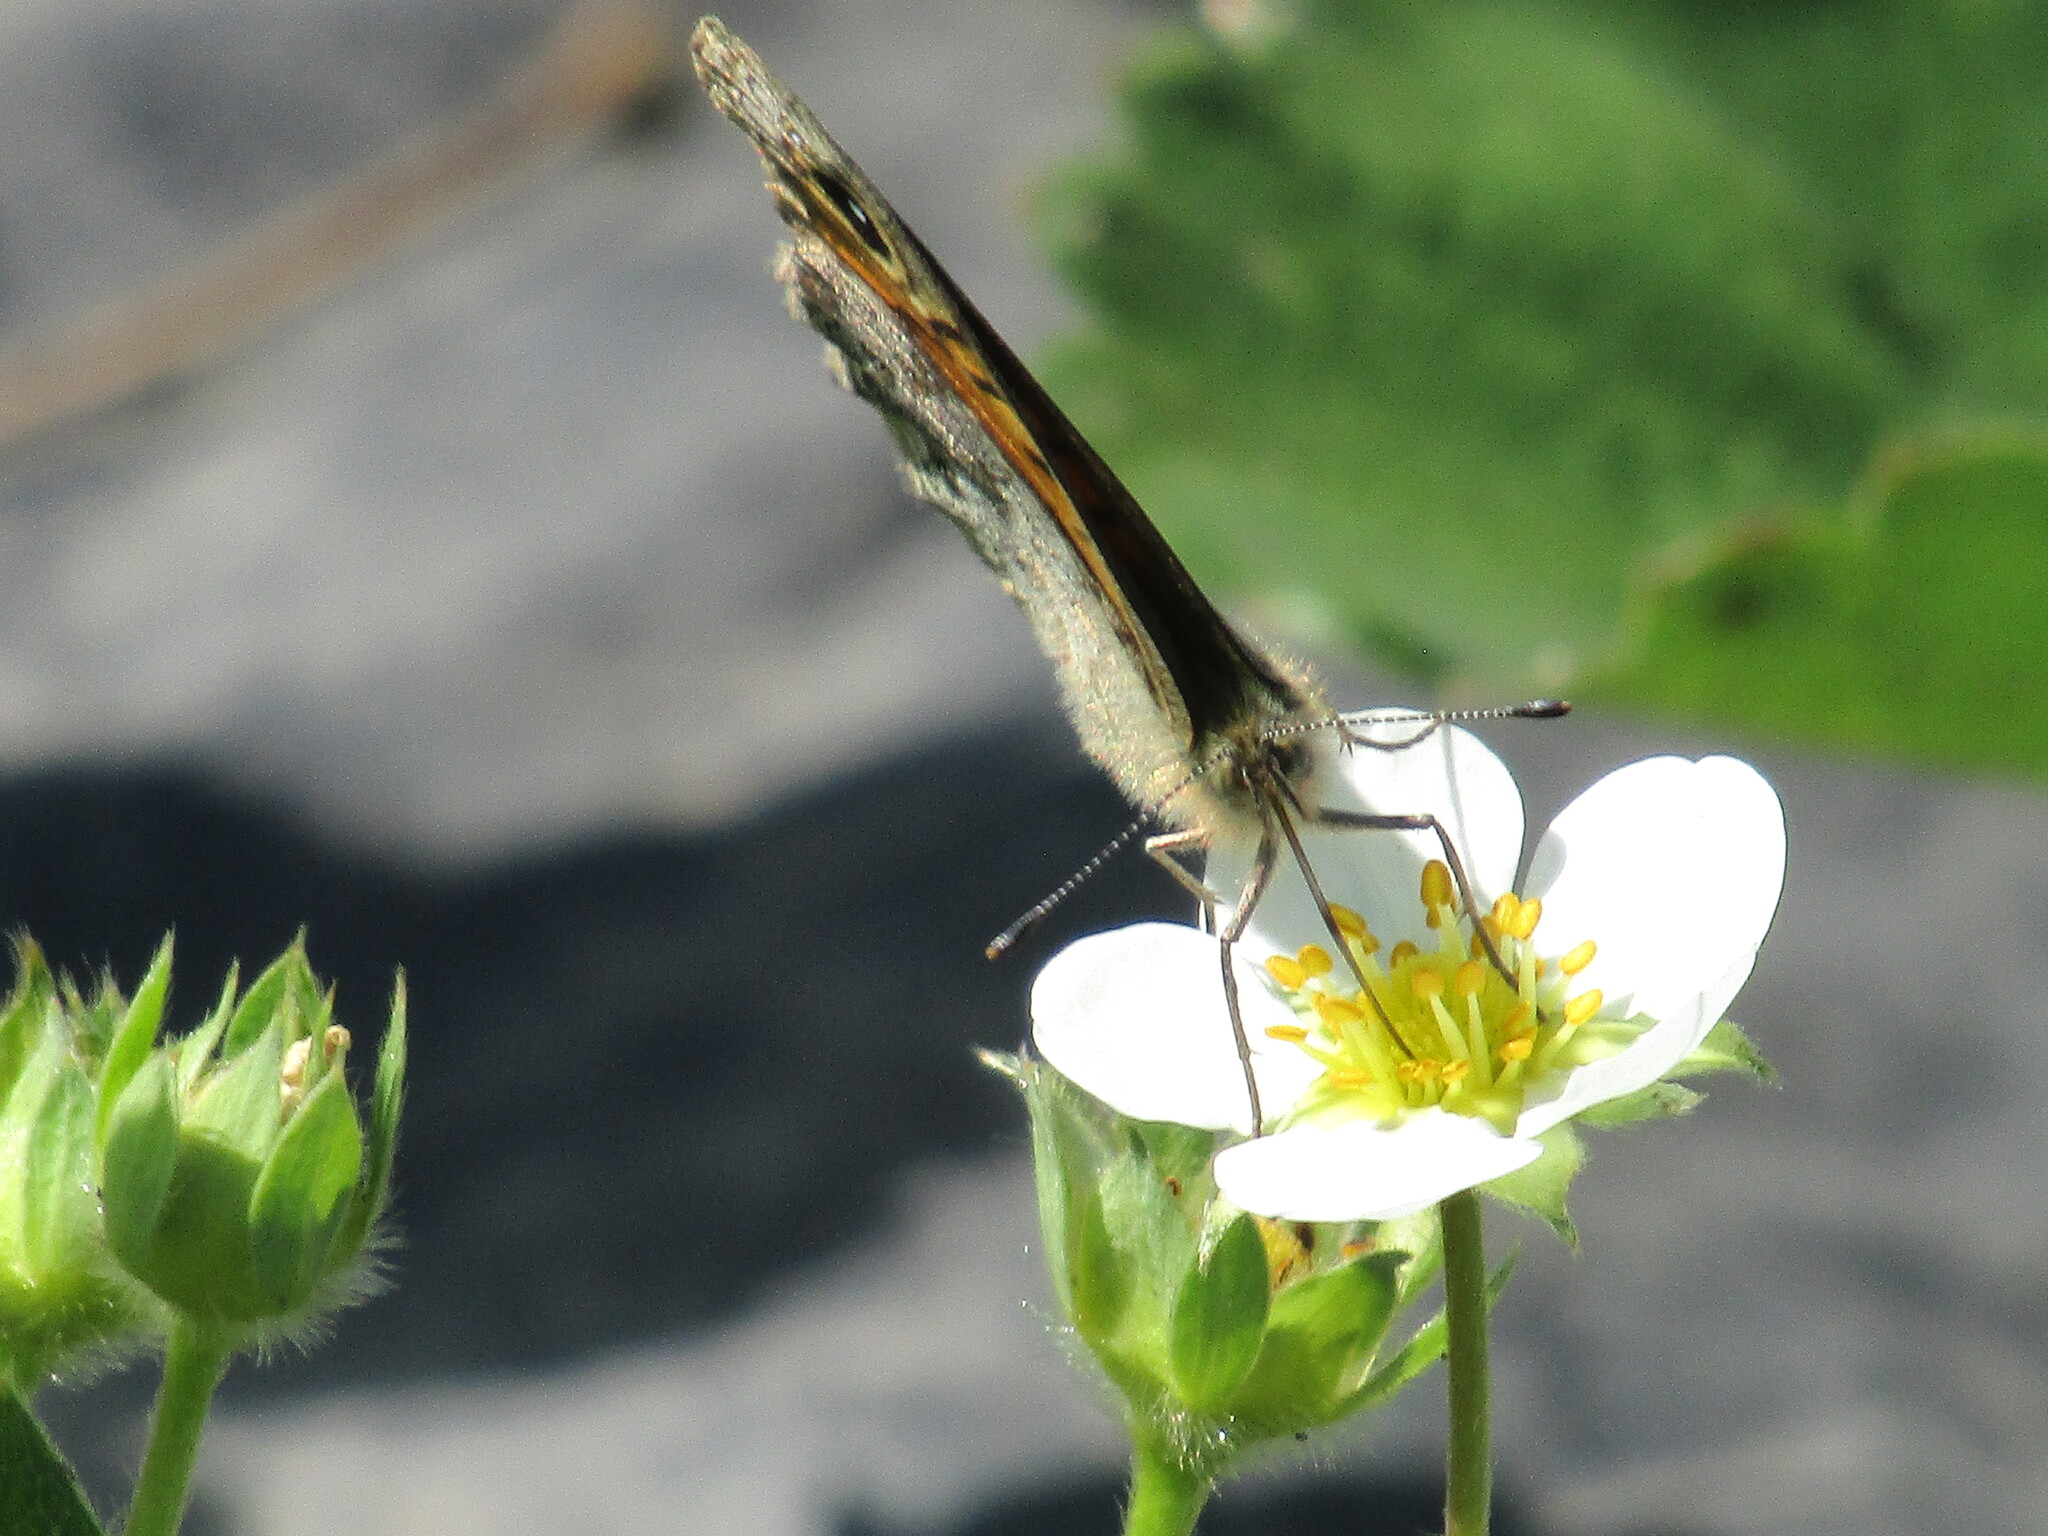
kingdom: Animalia
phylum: Arthropoda
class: Insecta
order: Lepidoptera
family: Nymphalidae
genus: Pararge
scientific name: Pararge Lasiommata megera
